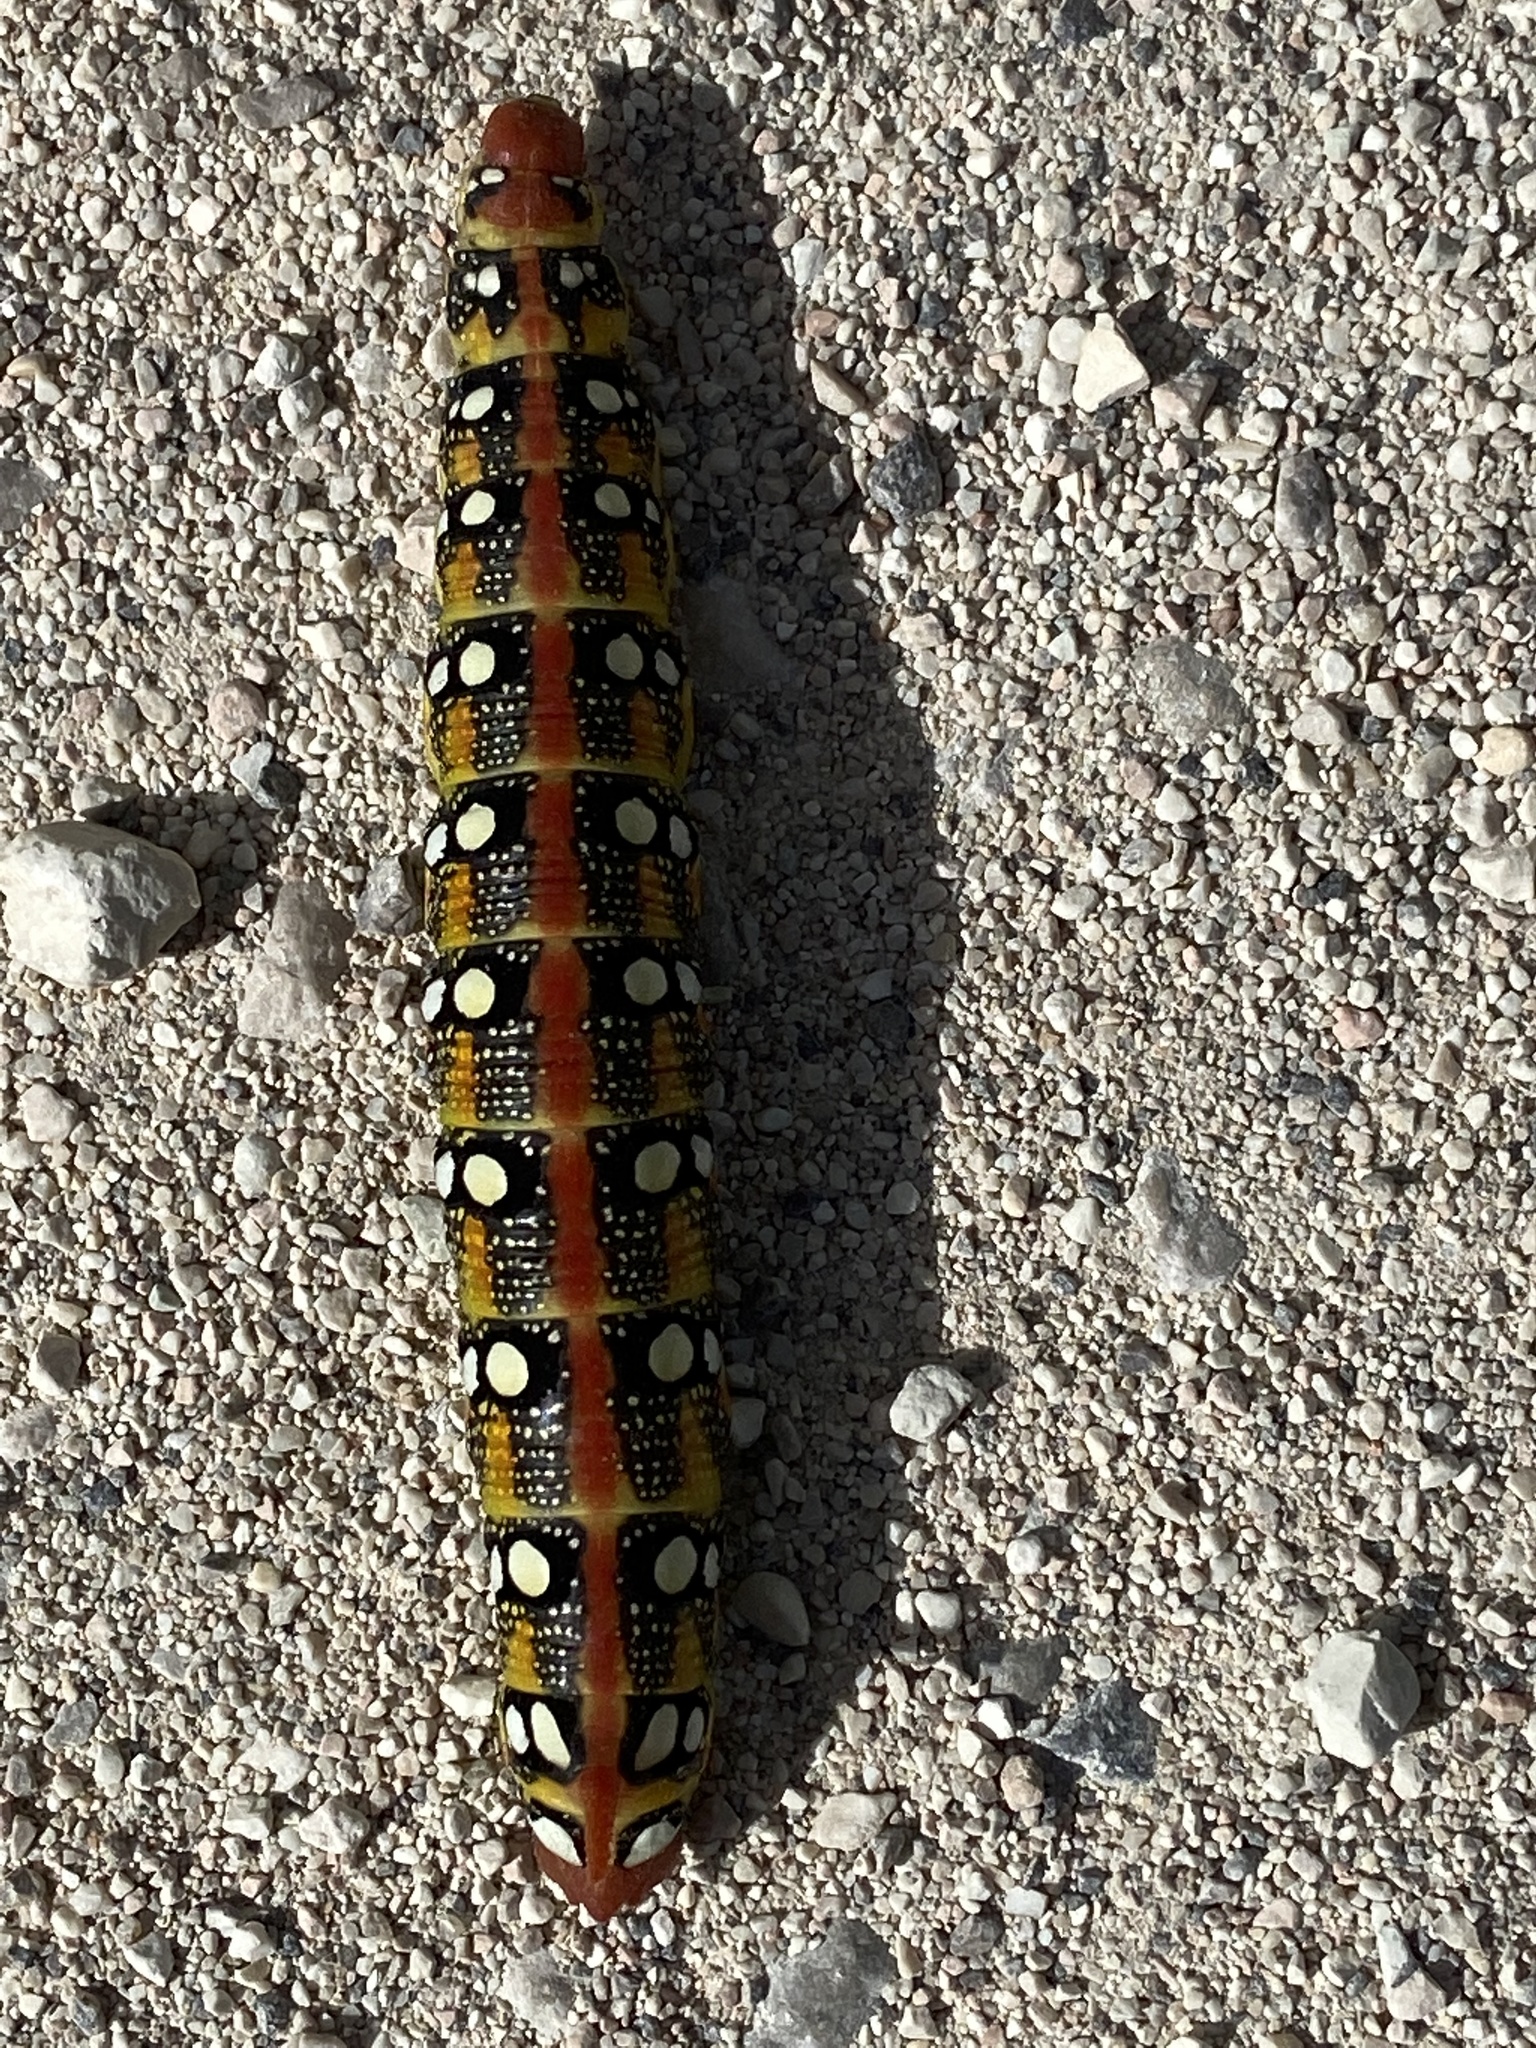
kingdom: Animalia
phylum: Arthropoda
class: Insecta
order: Lepidoptera
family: Sphingidae
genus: Hyles
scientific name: Hyles euphorbiae
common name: Spurge hawk-moth
